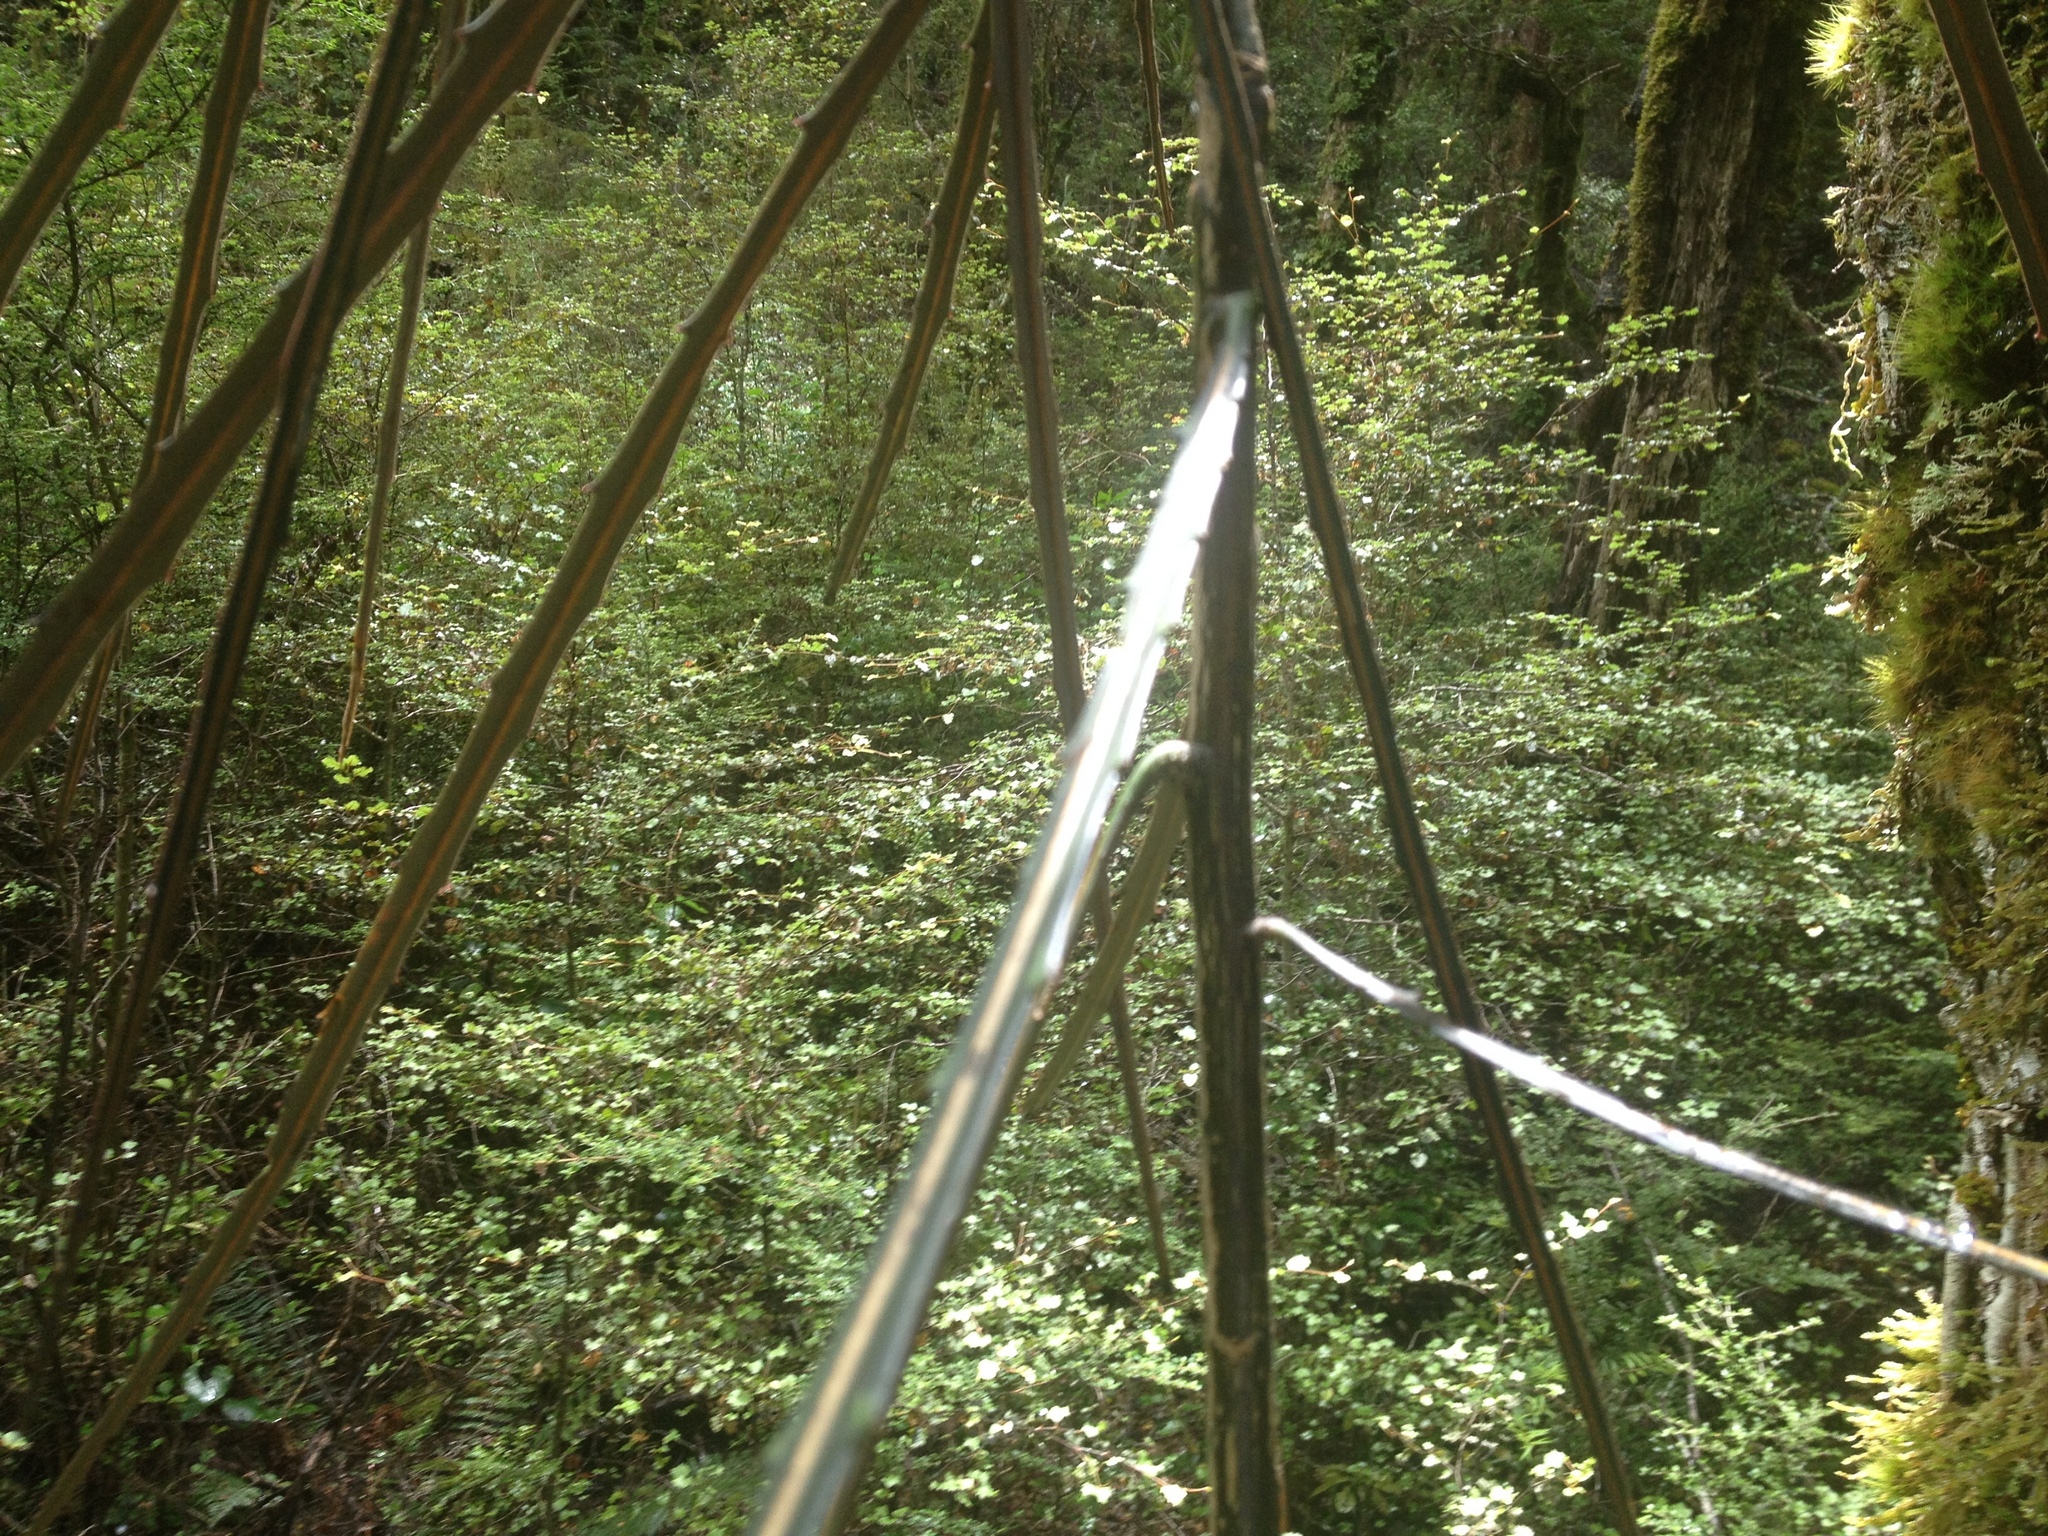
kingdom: Plantae
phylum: Tracheophyta
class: Magnoliopsida
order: Apiales
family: Araliaceae
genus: Pseudopanax
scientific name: Pseudopanax crassifolius
